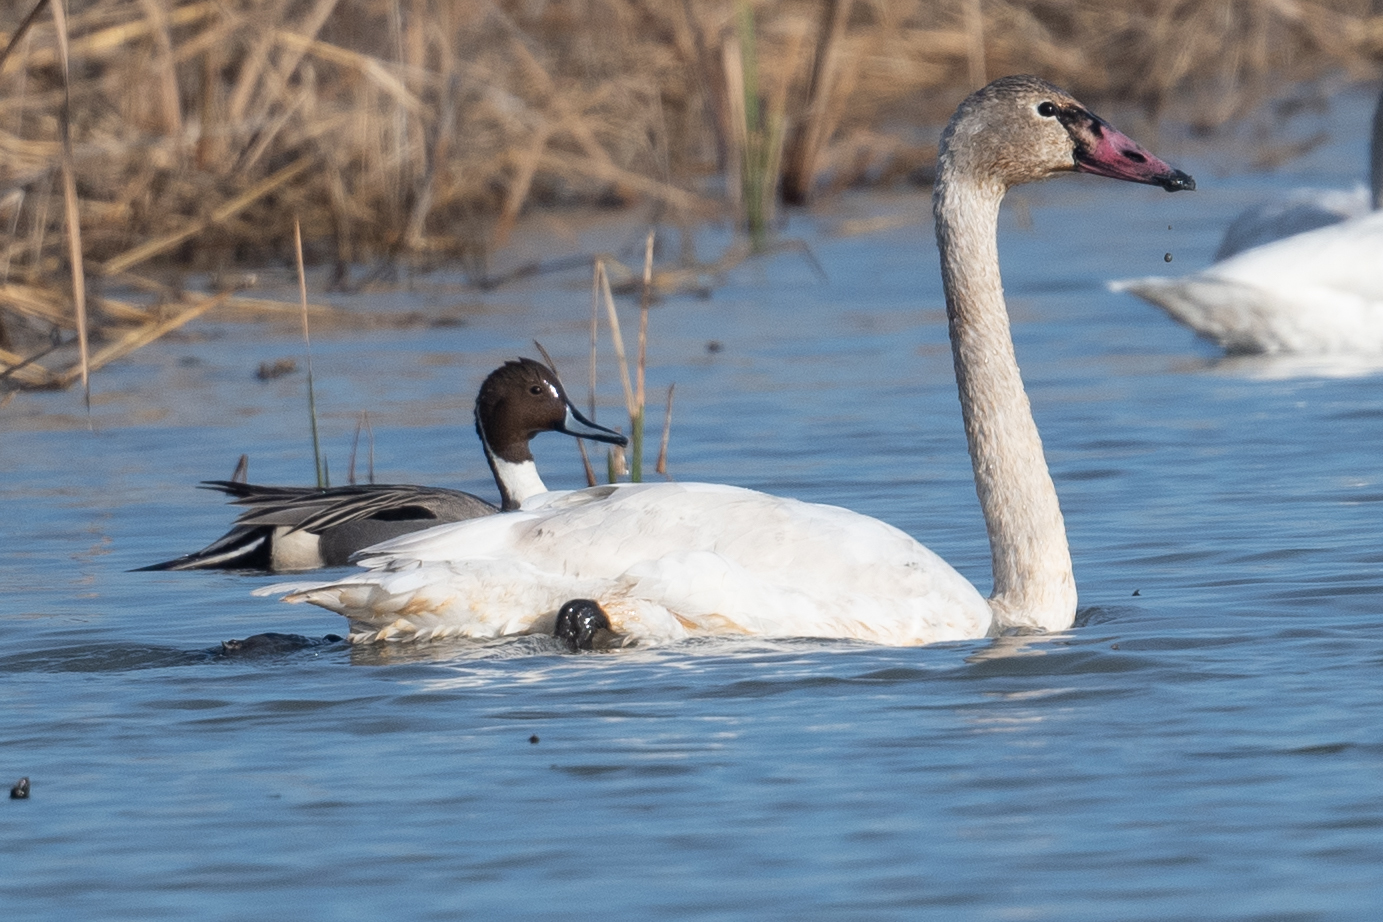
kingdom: Animalia
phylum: Chordata
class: Aves
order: Anseriformes
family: Anatidae
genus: Cygnus
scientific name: Cygnus columbianus
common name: Tundra swan
